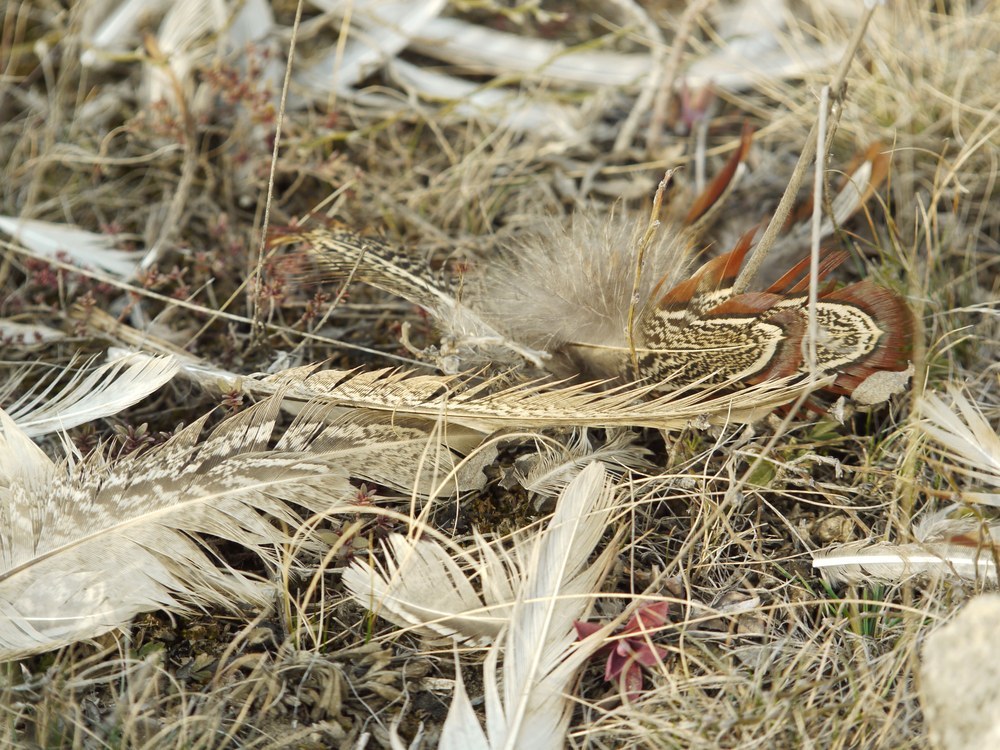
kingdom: Animalia
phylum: Chordata
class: Aves
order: Galliformes
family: Phasianidae
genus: Phasianus
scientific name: Phasianus colchicus
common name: Common pheasant
